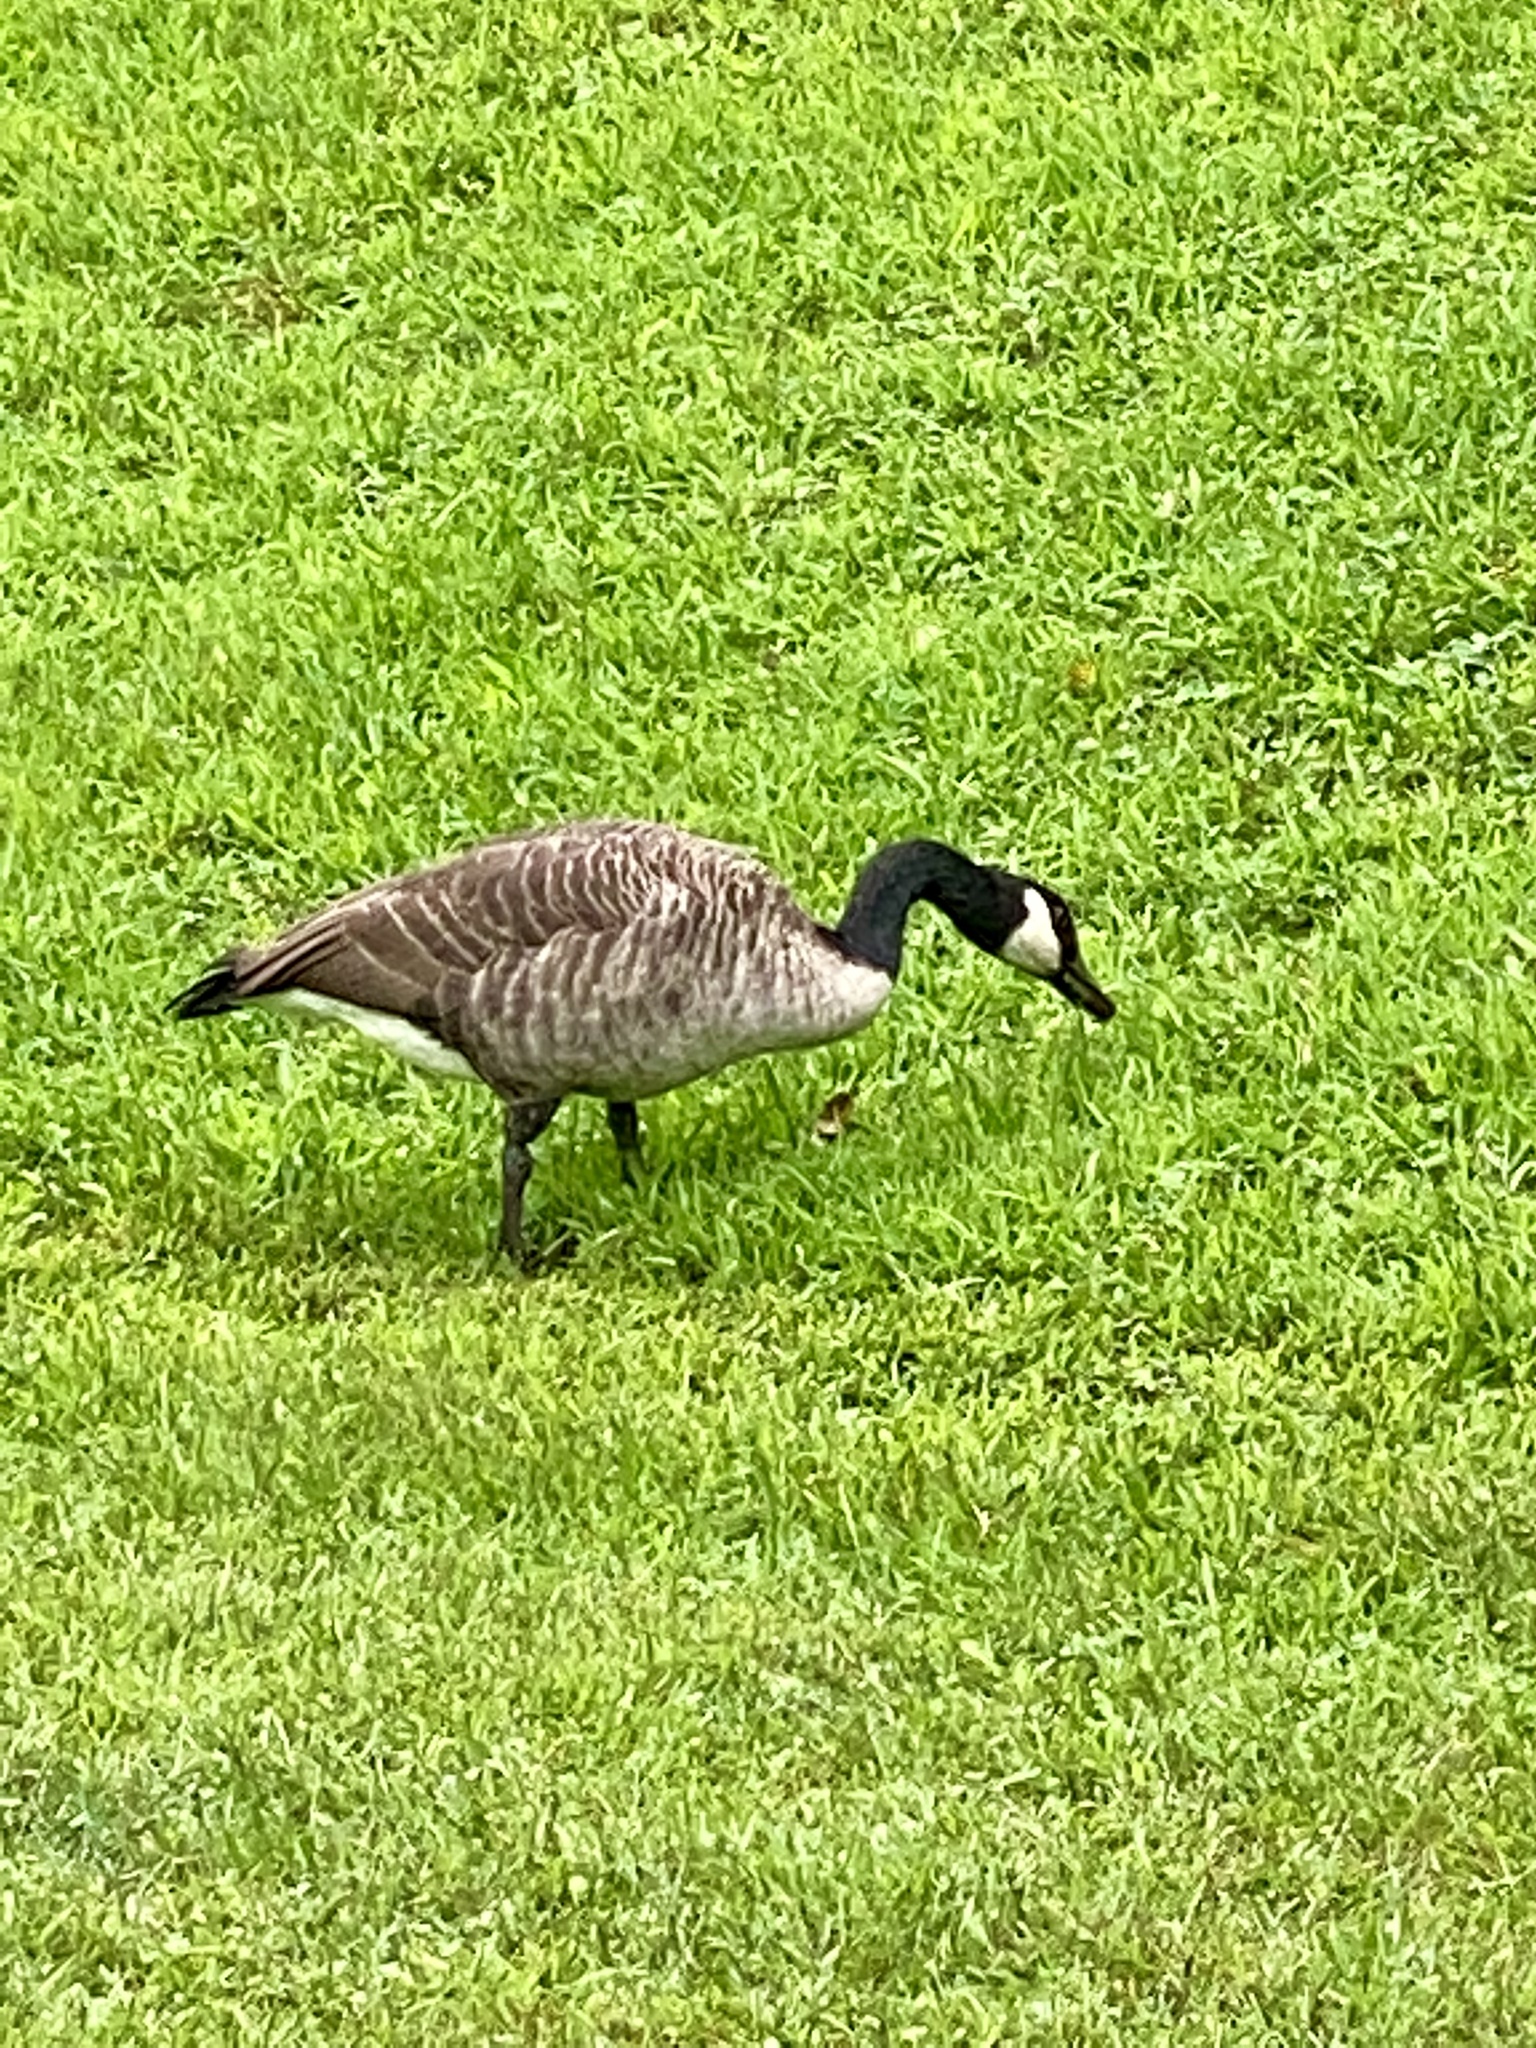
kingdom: Animalia
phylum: Chordata
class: Aves
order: Anseriformes
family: Anatidae
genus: Branta
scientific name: Branta canadensis
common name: Canada goose
